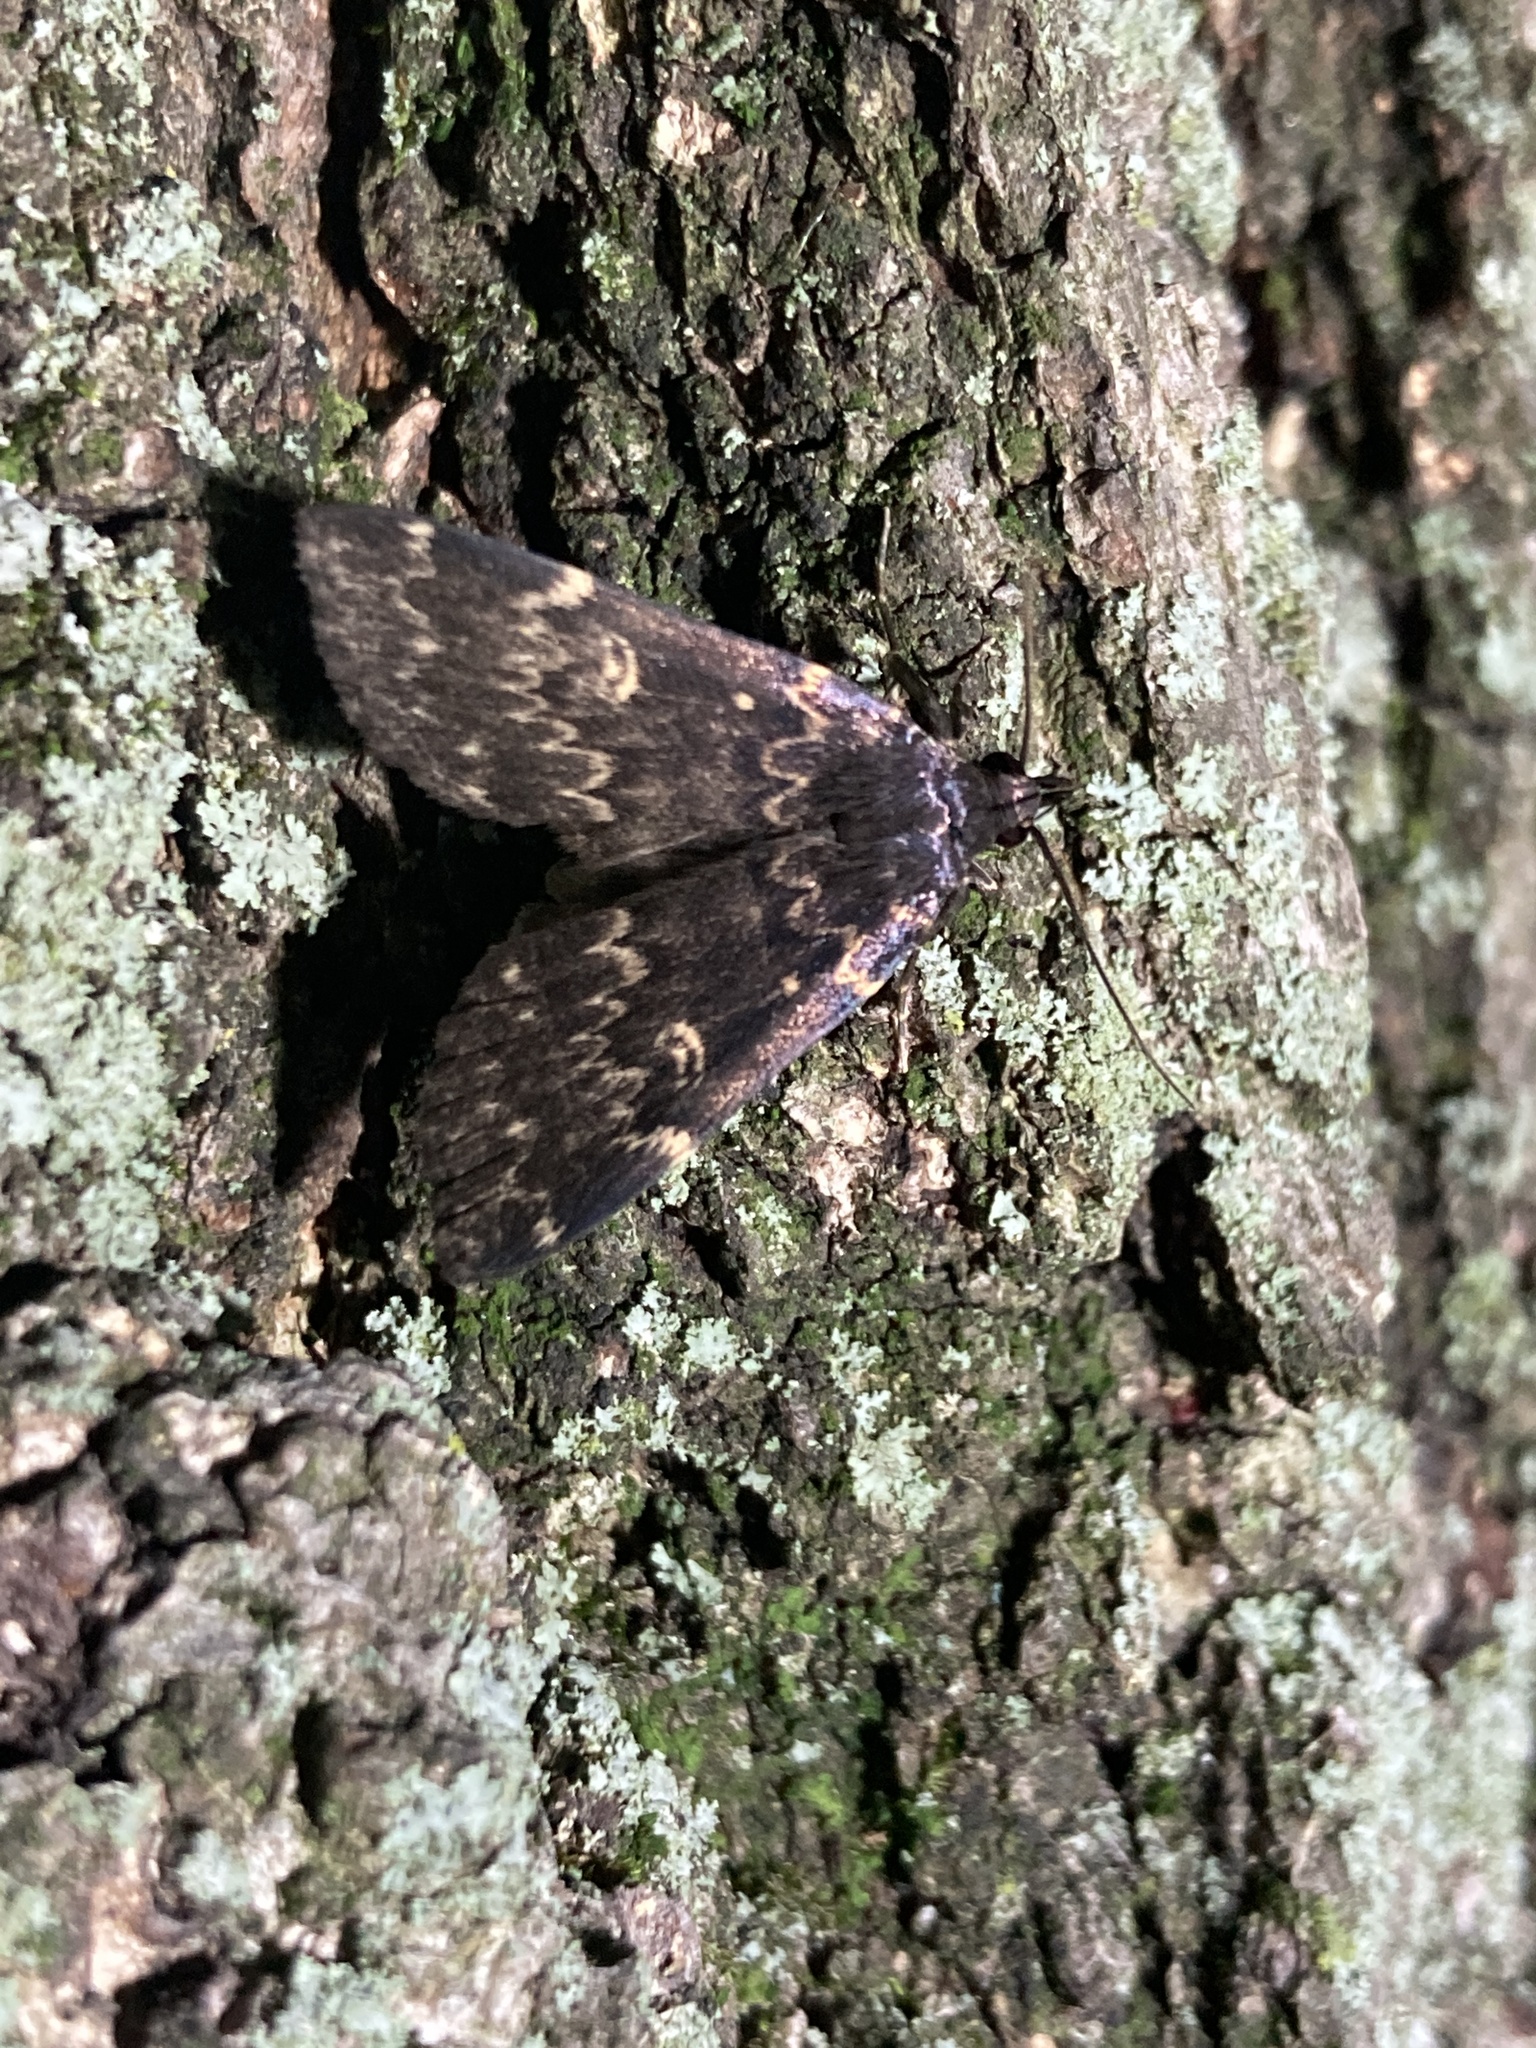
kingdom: Animalia
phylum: Arthropoda
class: Insecta
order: Lepidoptera
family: Erebidae
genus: Idia
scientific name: Idia lubricalis
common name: Twin-striped tabby
